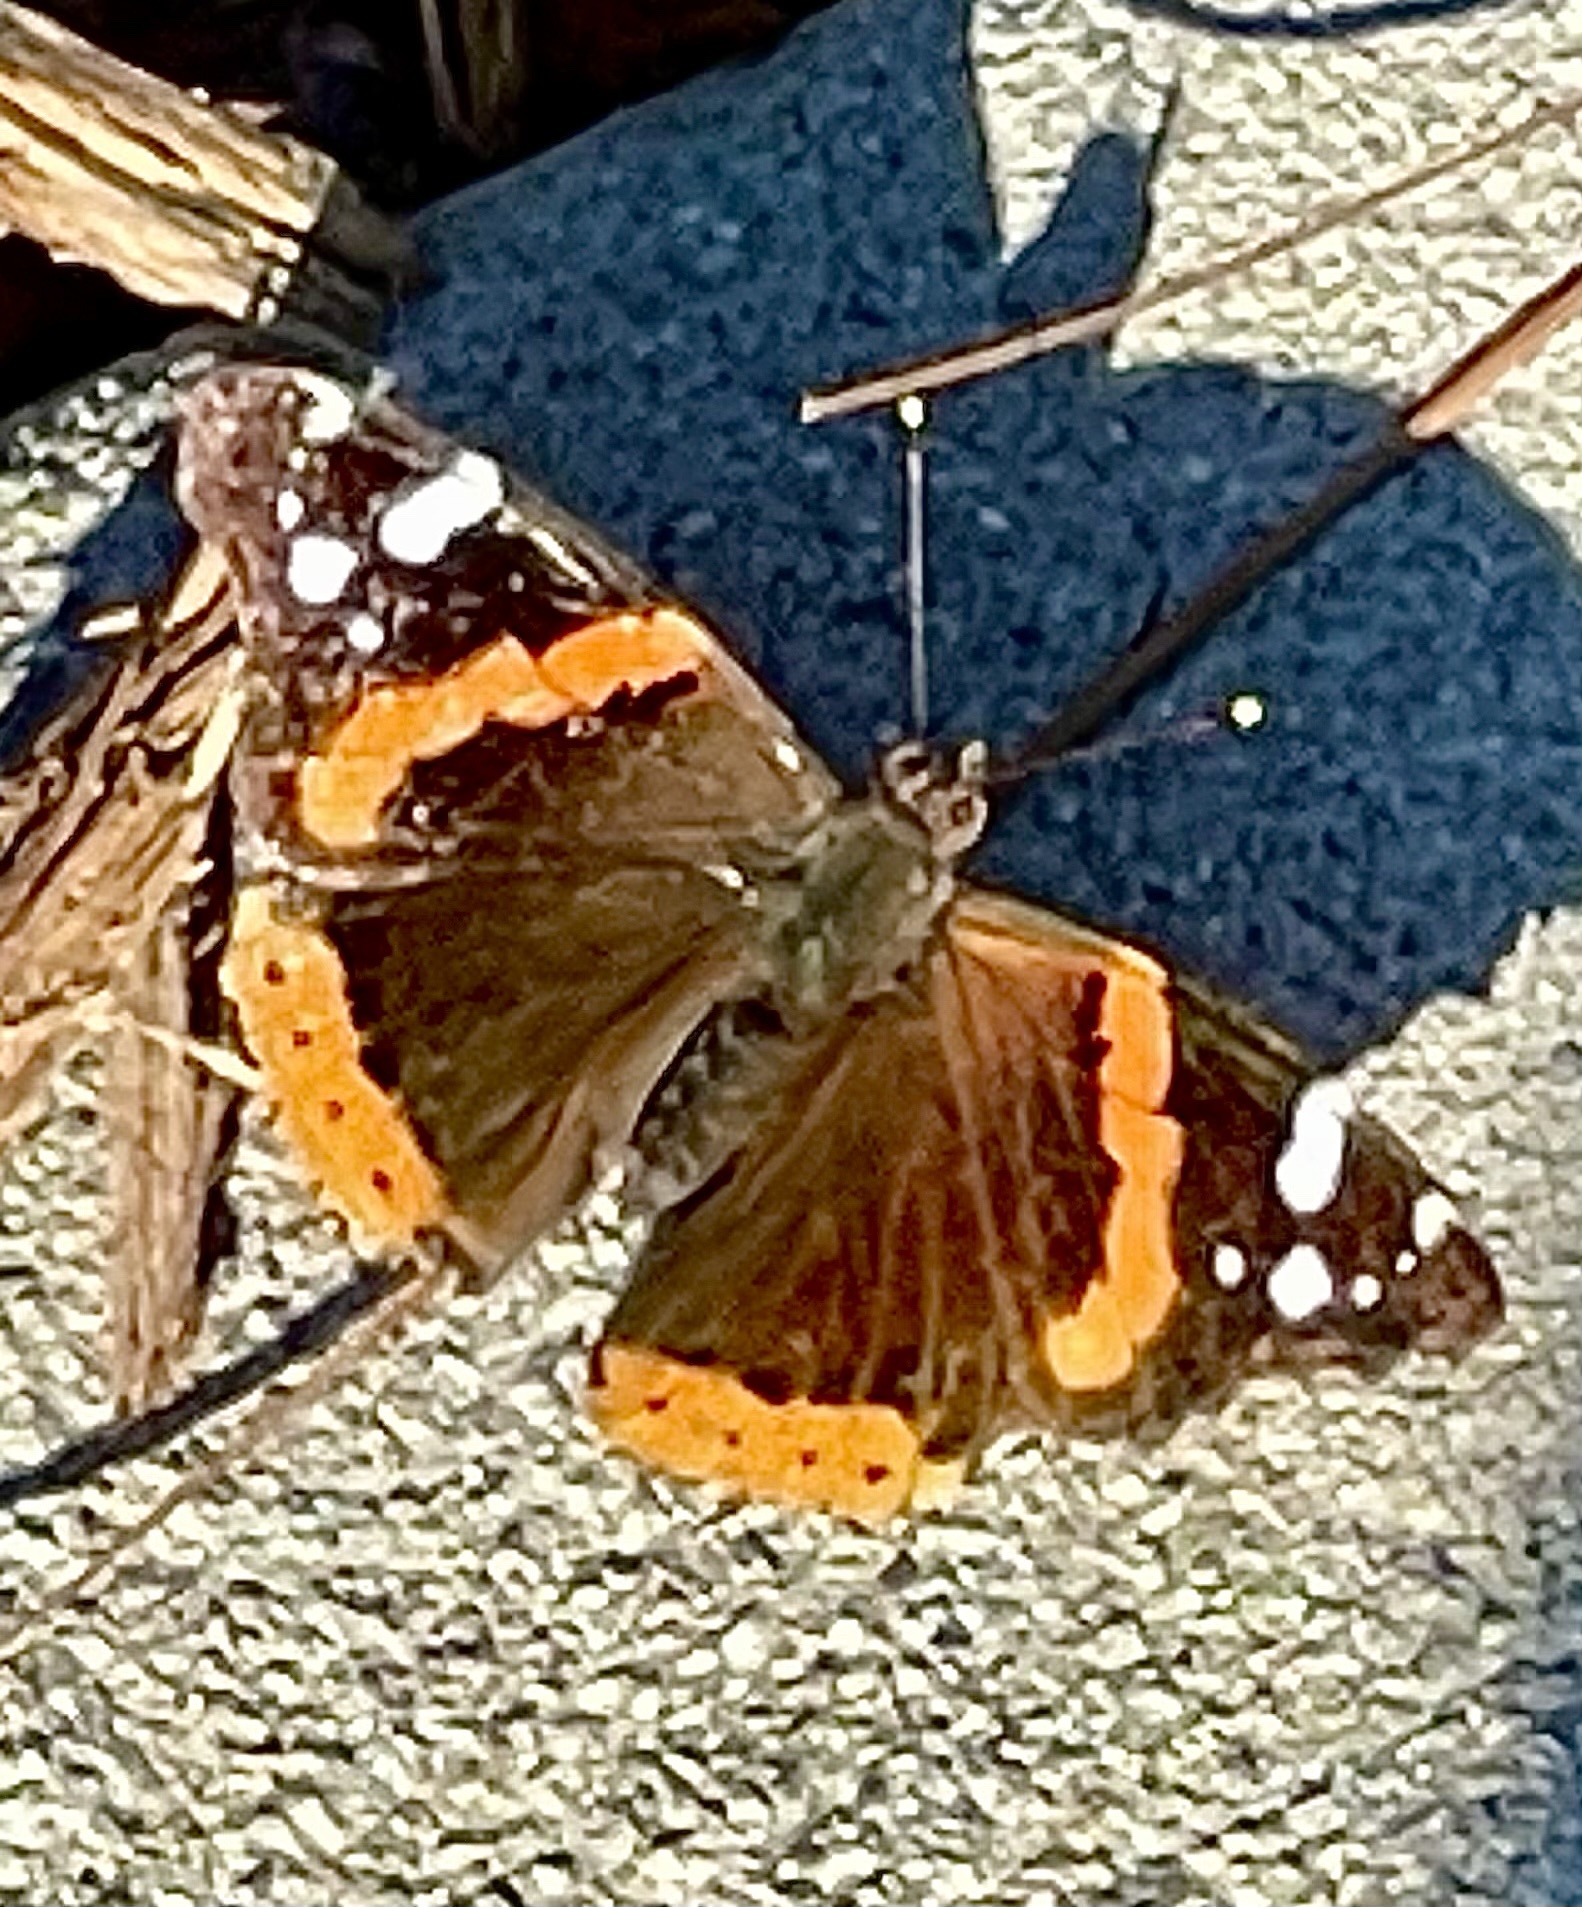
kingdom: Animalia
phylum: Arthropoda
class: Insecta
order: Lepidoptera
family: Nymphalidae
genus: Vanessa
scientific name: Vanessa atalanta
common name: Red admiral
